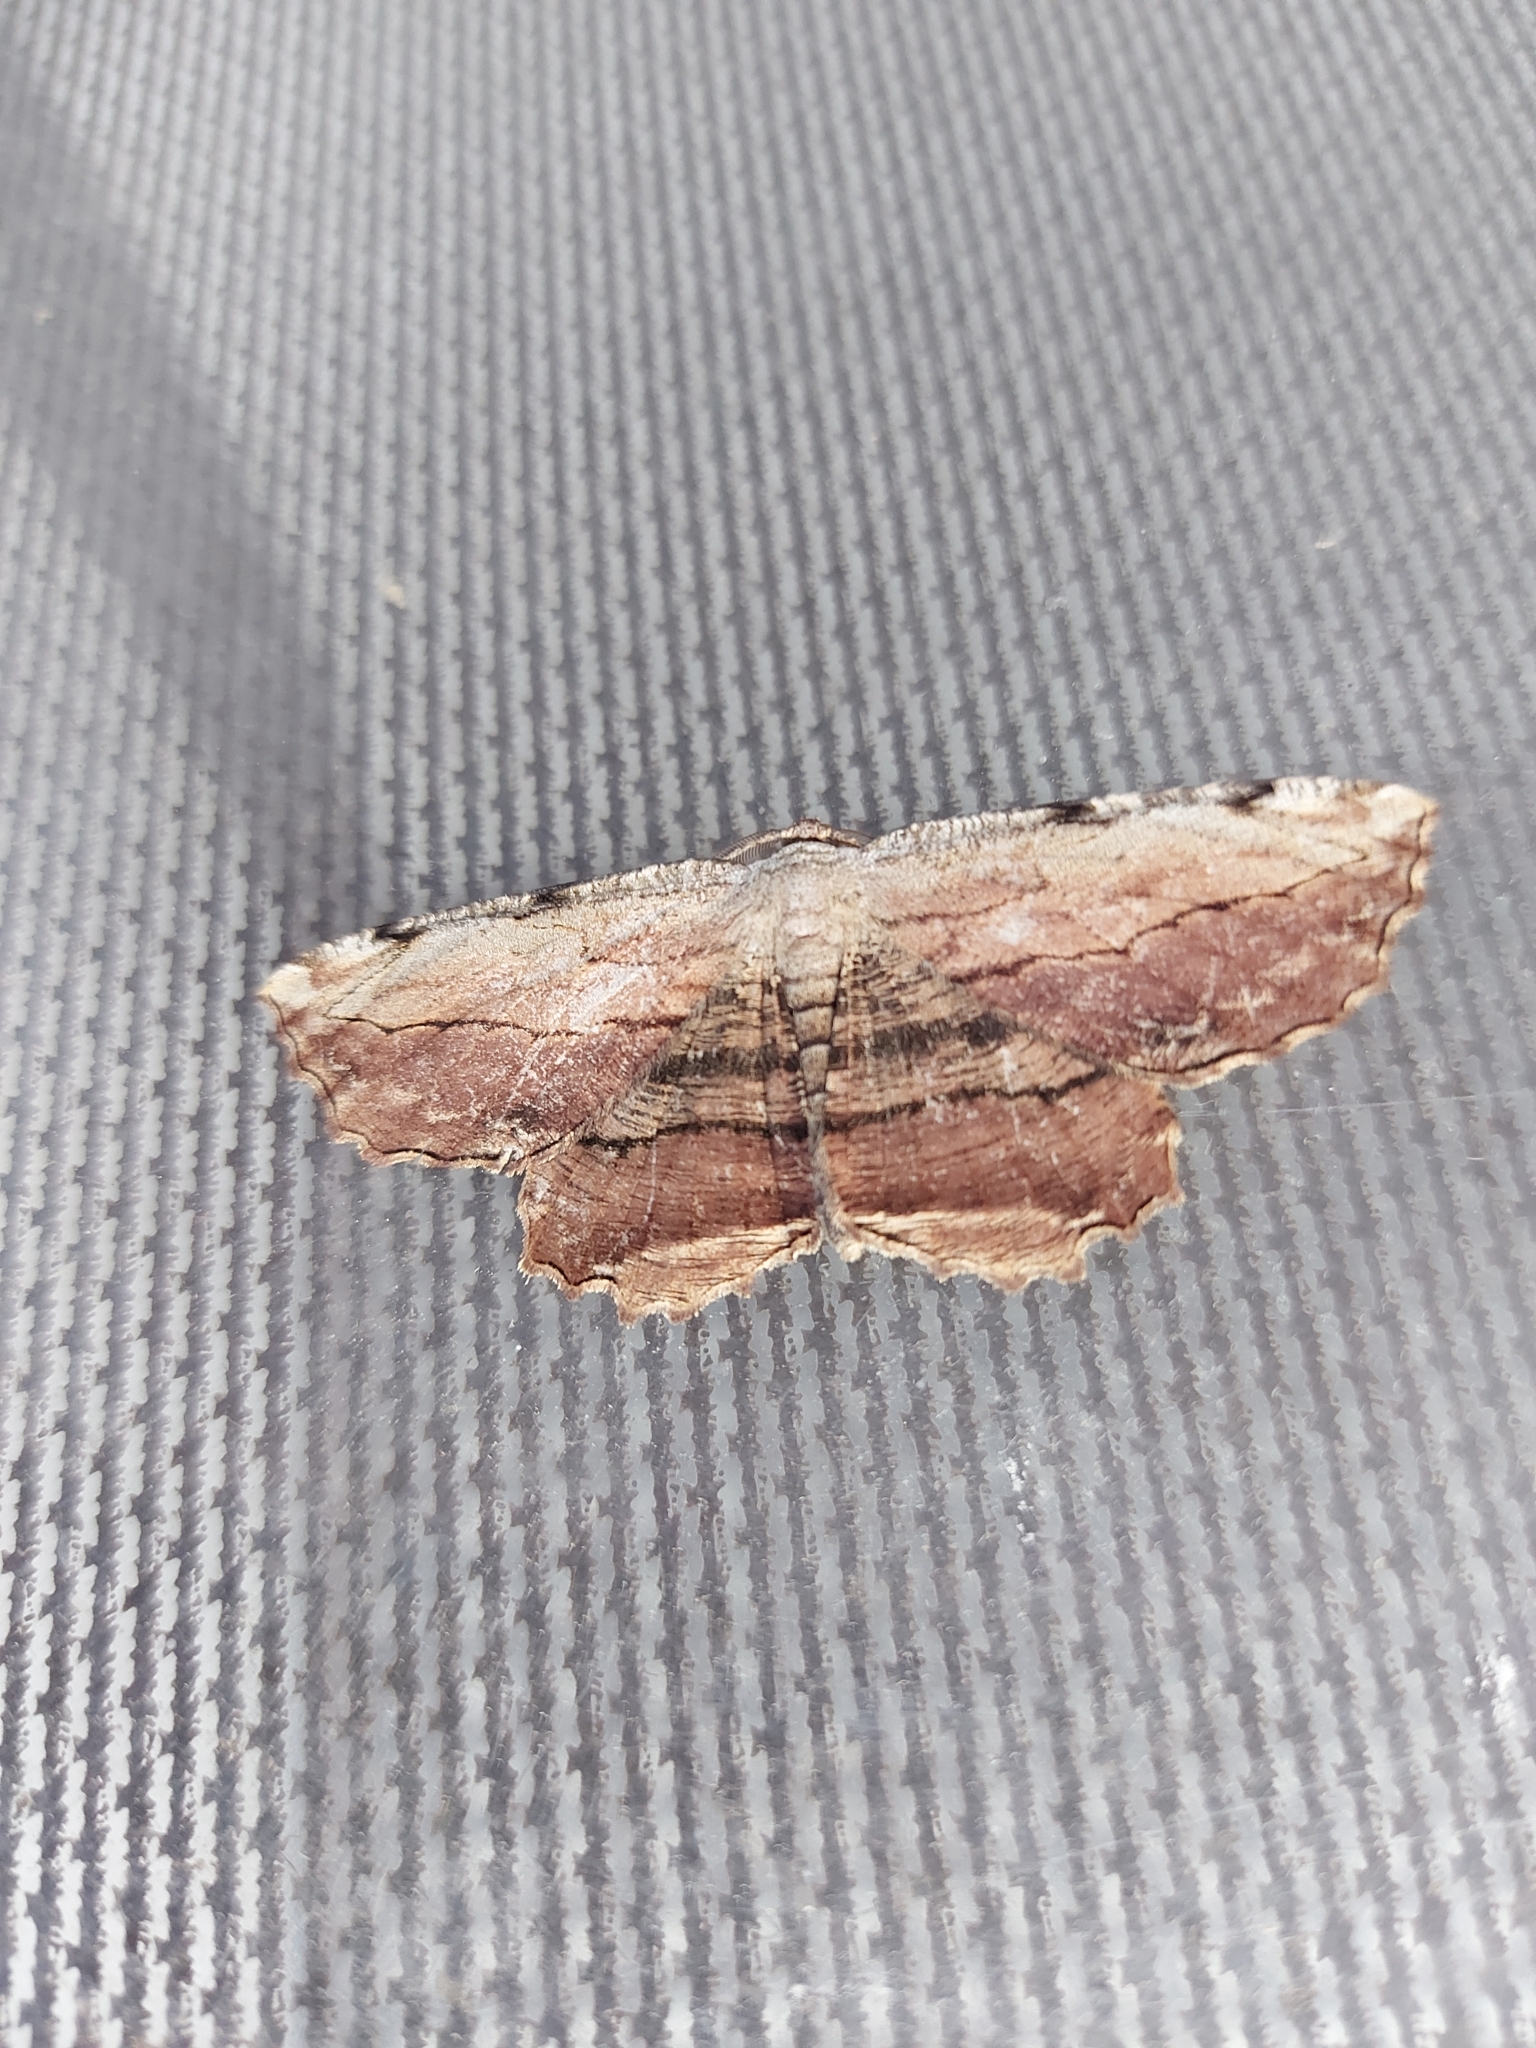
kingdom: Animalia
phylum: Arthropoda
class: Insecta
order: Lepidoptera
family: Geometridae
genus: Lytrosis
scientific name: Lytrosis unitaria
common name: Common lytrosis
